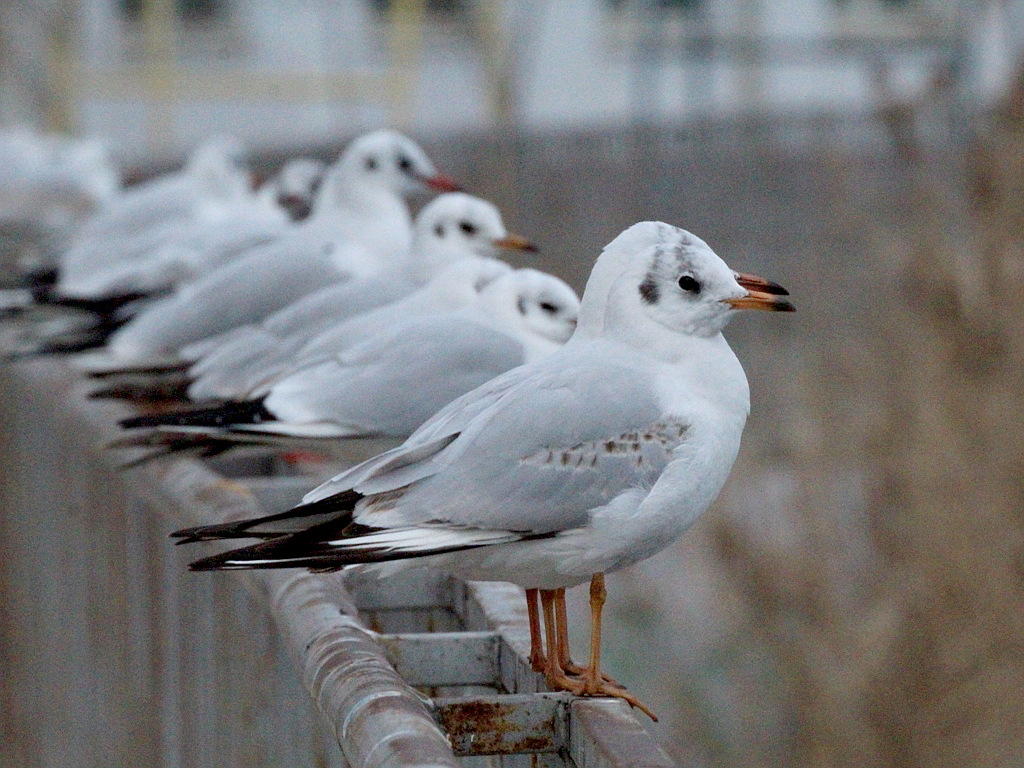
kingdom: Animalia
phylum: Chordata
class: Aves
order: Charadriiformes
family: Laridae
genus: Chroicocephalus
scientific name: Chroicocephalus ridibundus
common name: Black-headed gull
